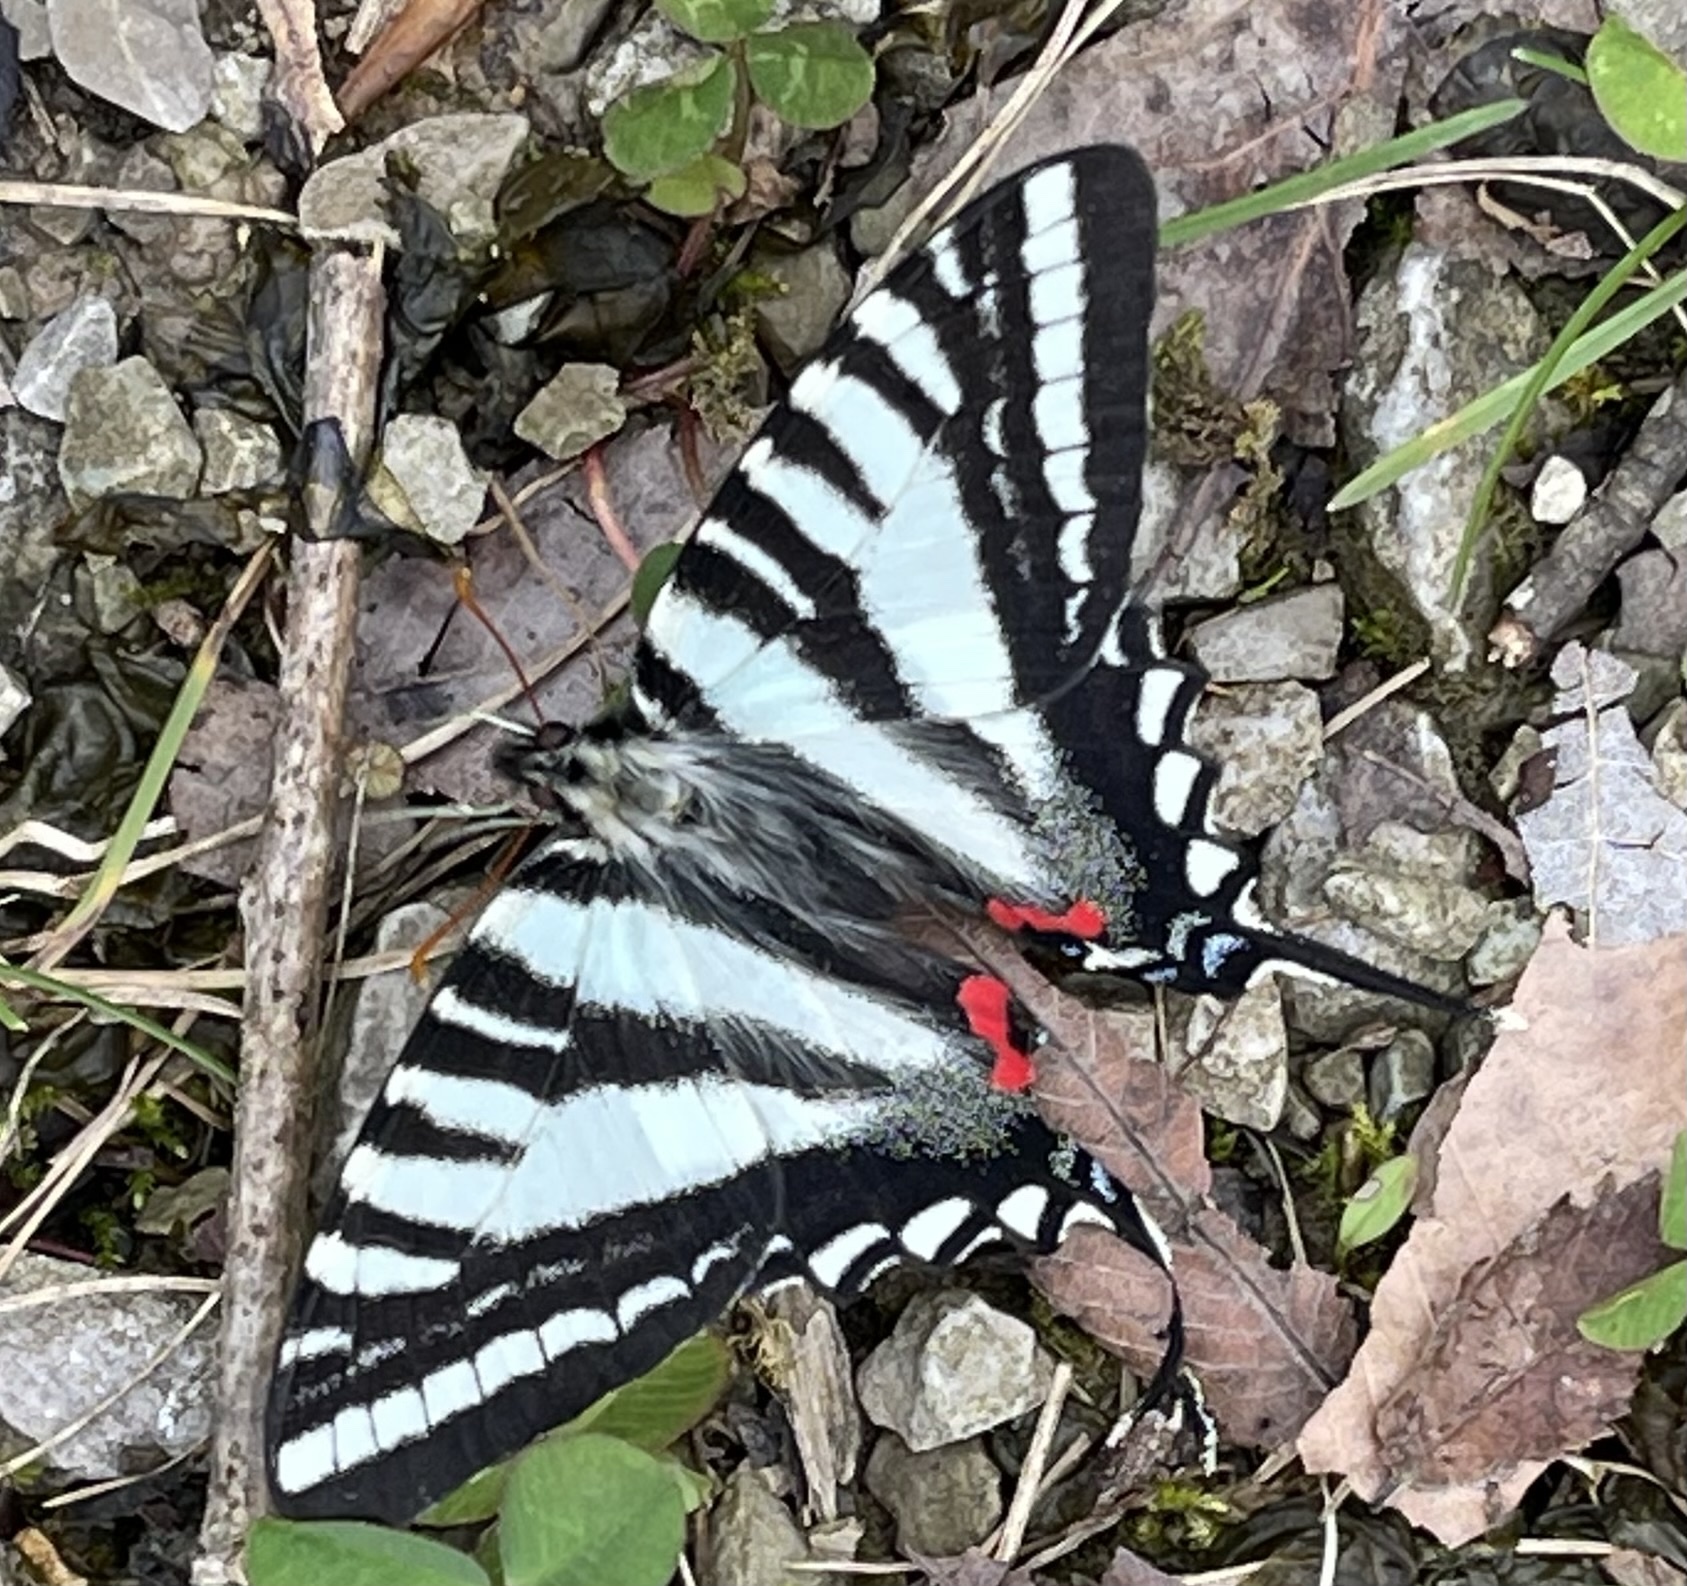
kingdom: Animalia
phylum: Arthropoda
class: Insecta
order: Lepidoptera
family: Papilionidae
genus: Protographium
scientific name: Protographium marcellus
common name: Zebra swallowtail
